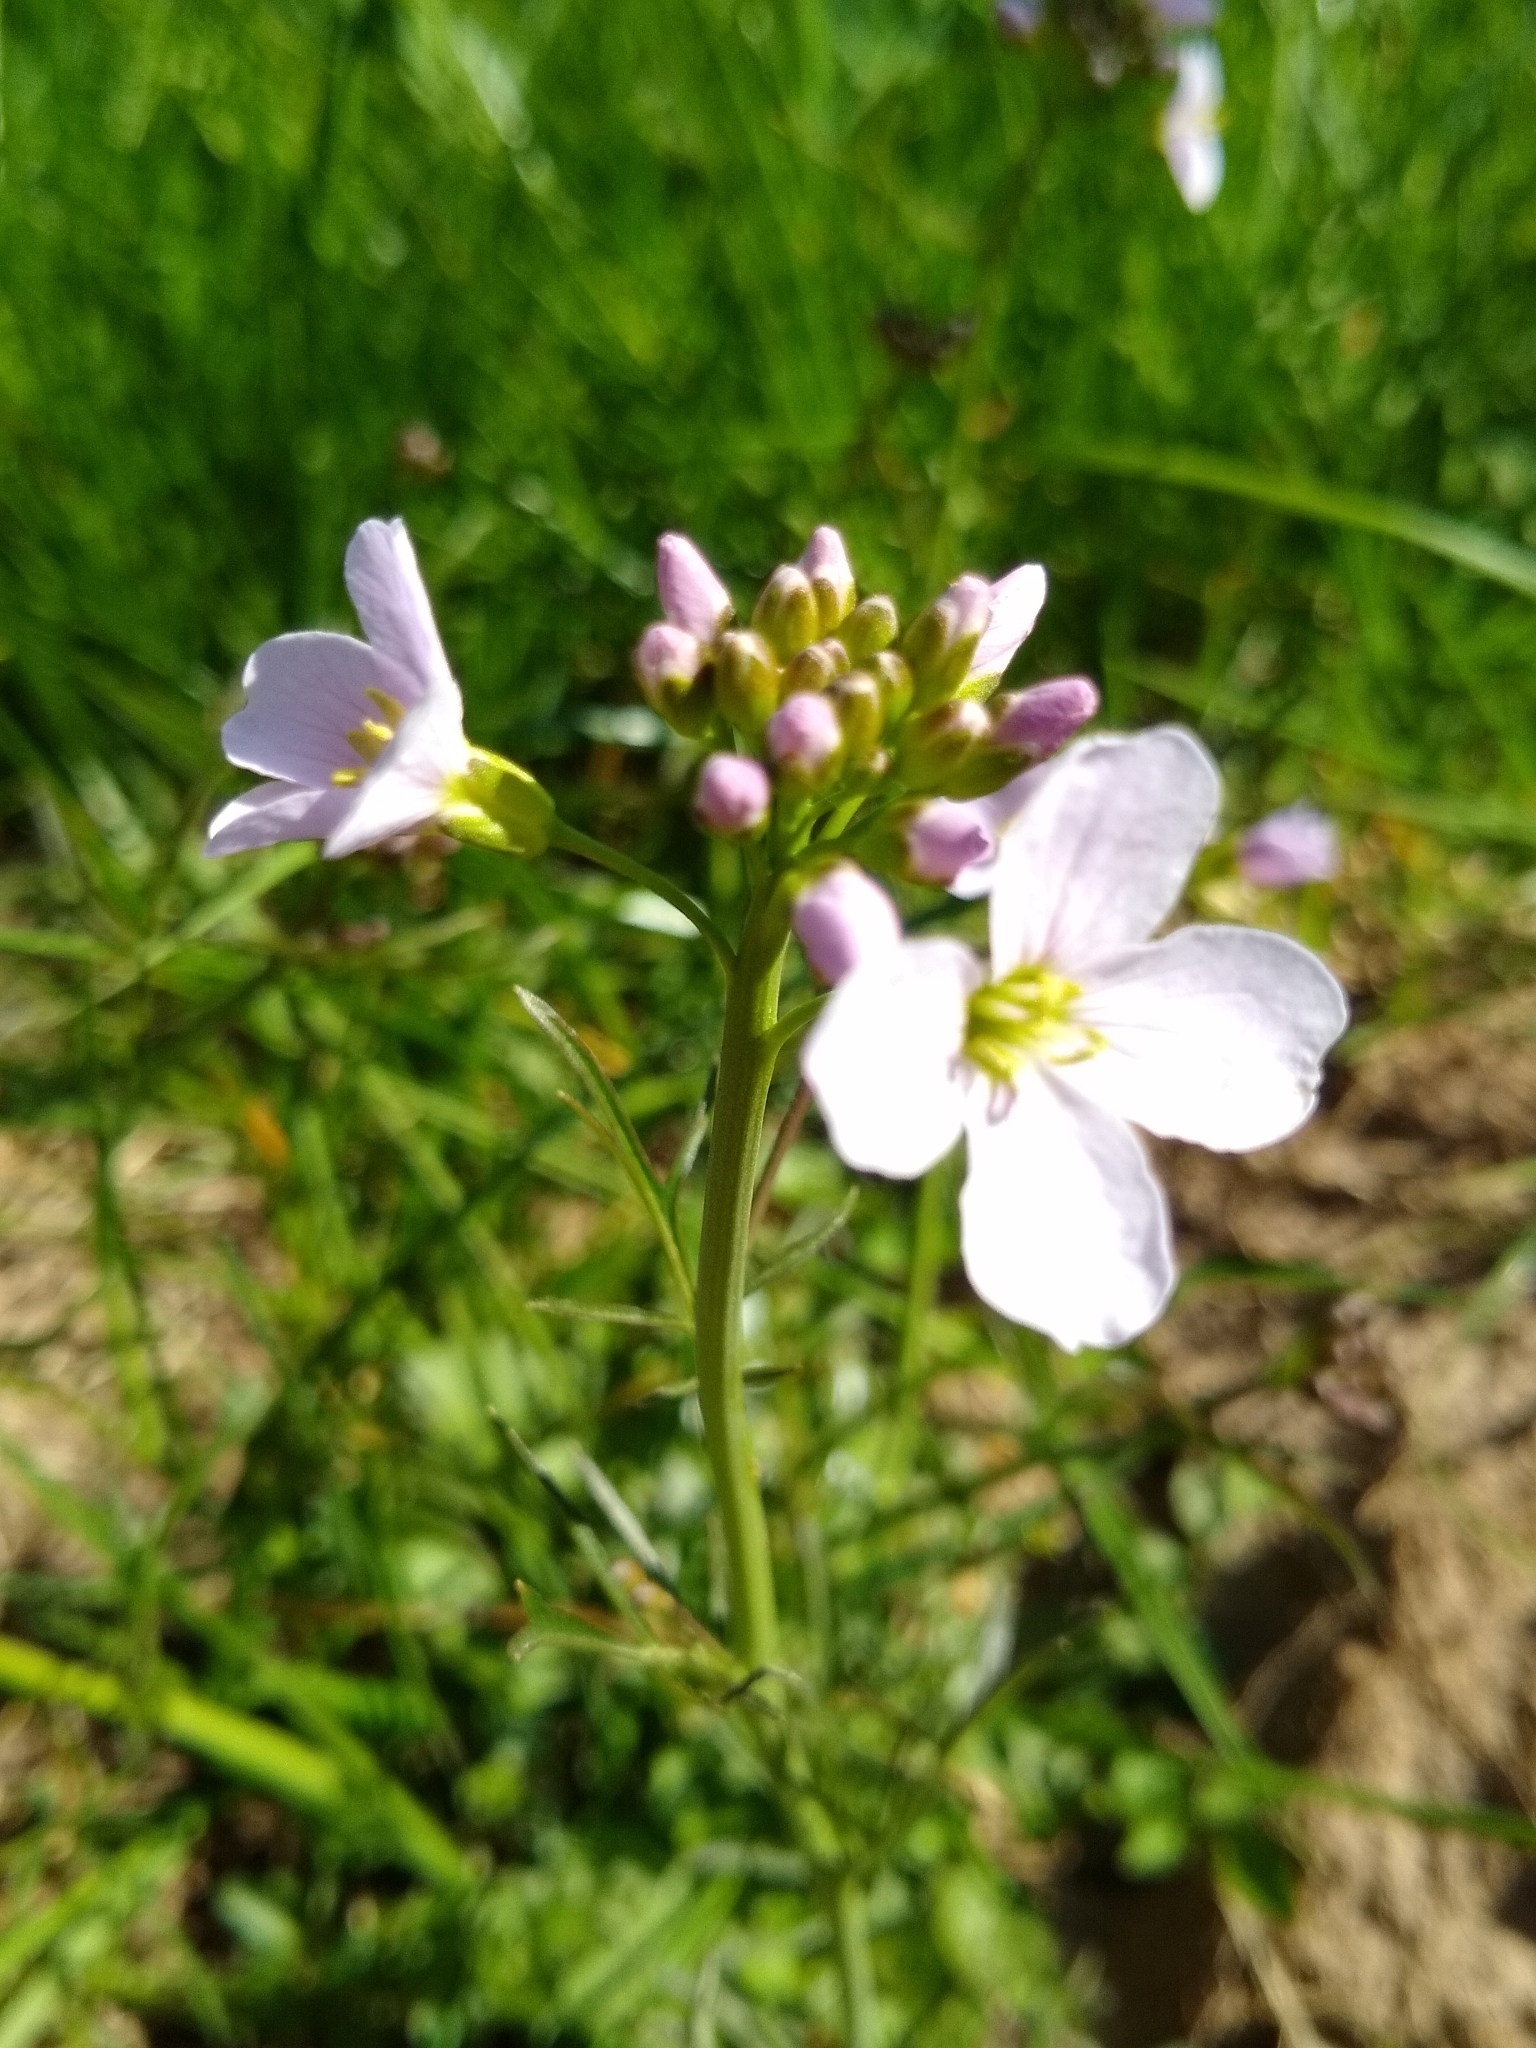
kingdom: Plantae
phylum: Tracheophyta
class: Magnoliopsida
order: Brassicales
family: Brassicaceae
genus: Cardamine
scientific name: Cardamine pratensis
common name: Cuckoo flower
